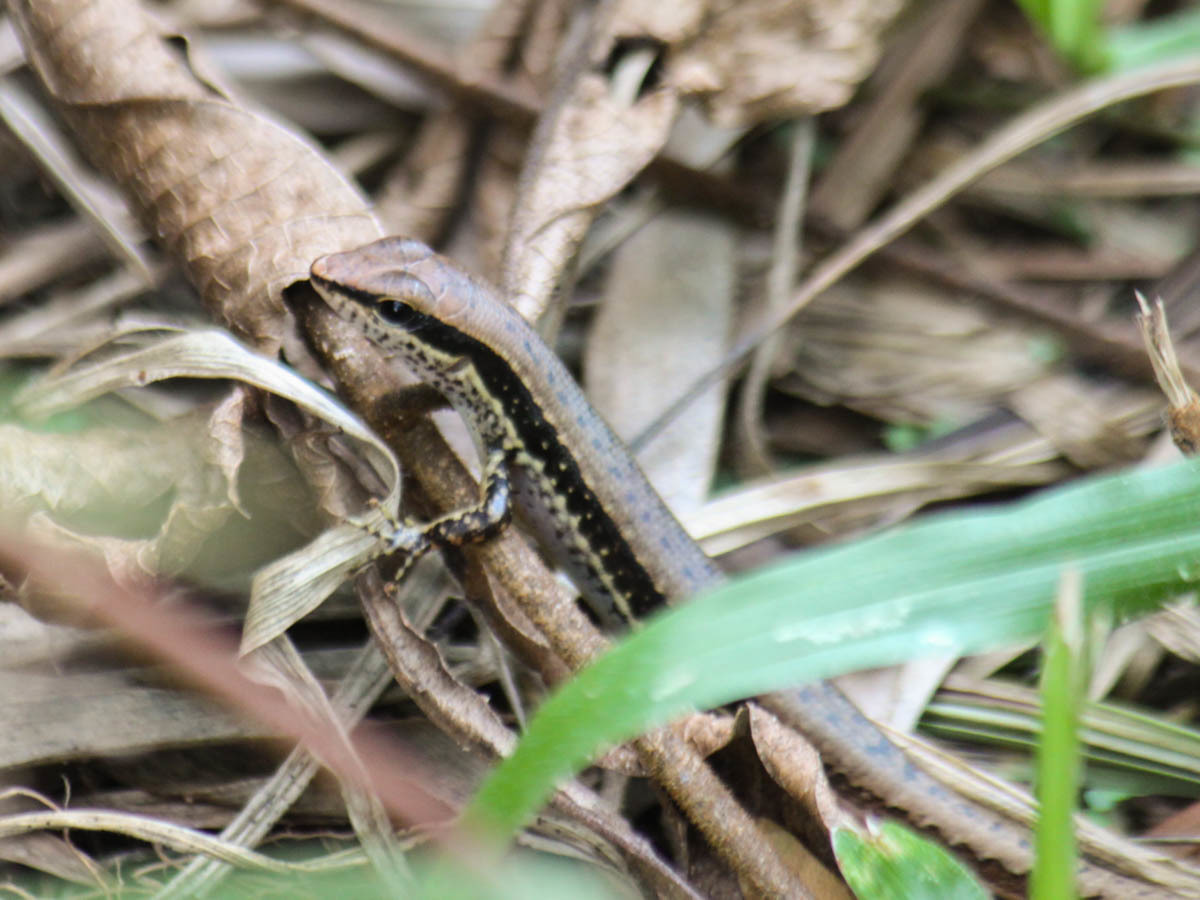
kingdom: Animalia
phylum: Chordata
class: Squamata
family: Scincidae
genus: Sphenomorphus
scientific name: Sphenomorphus maculatus
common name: Maculated forest skink
